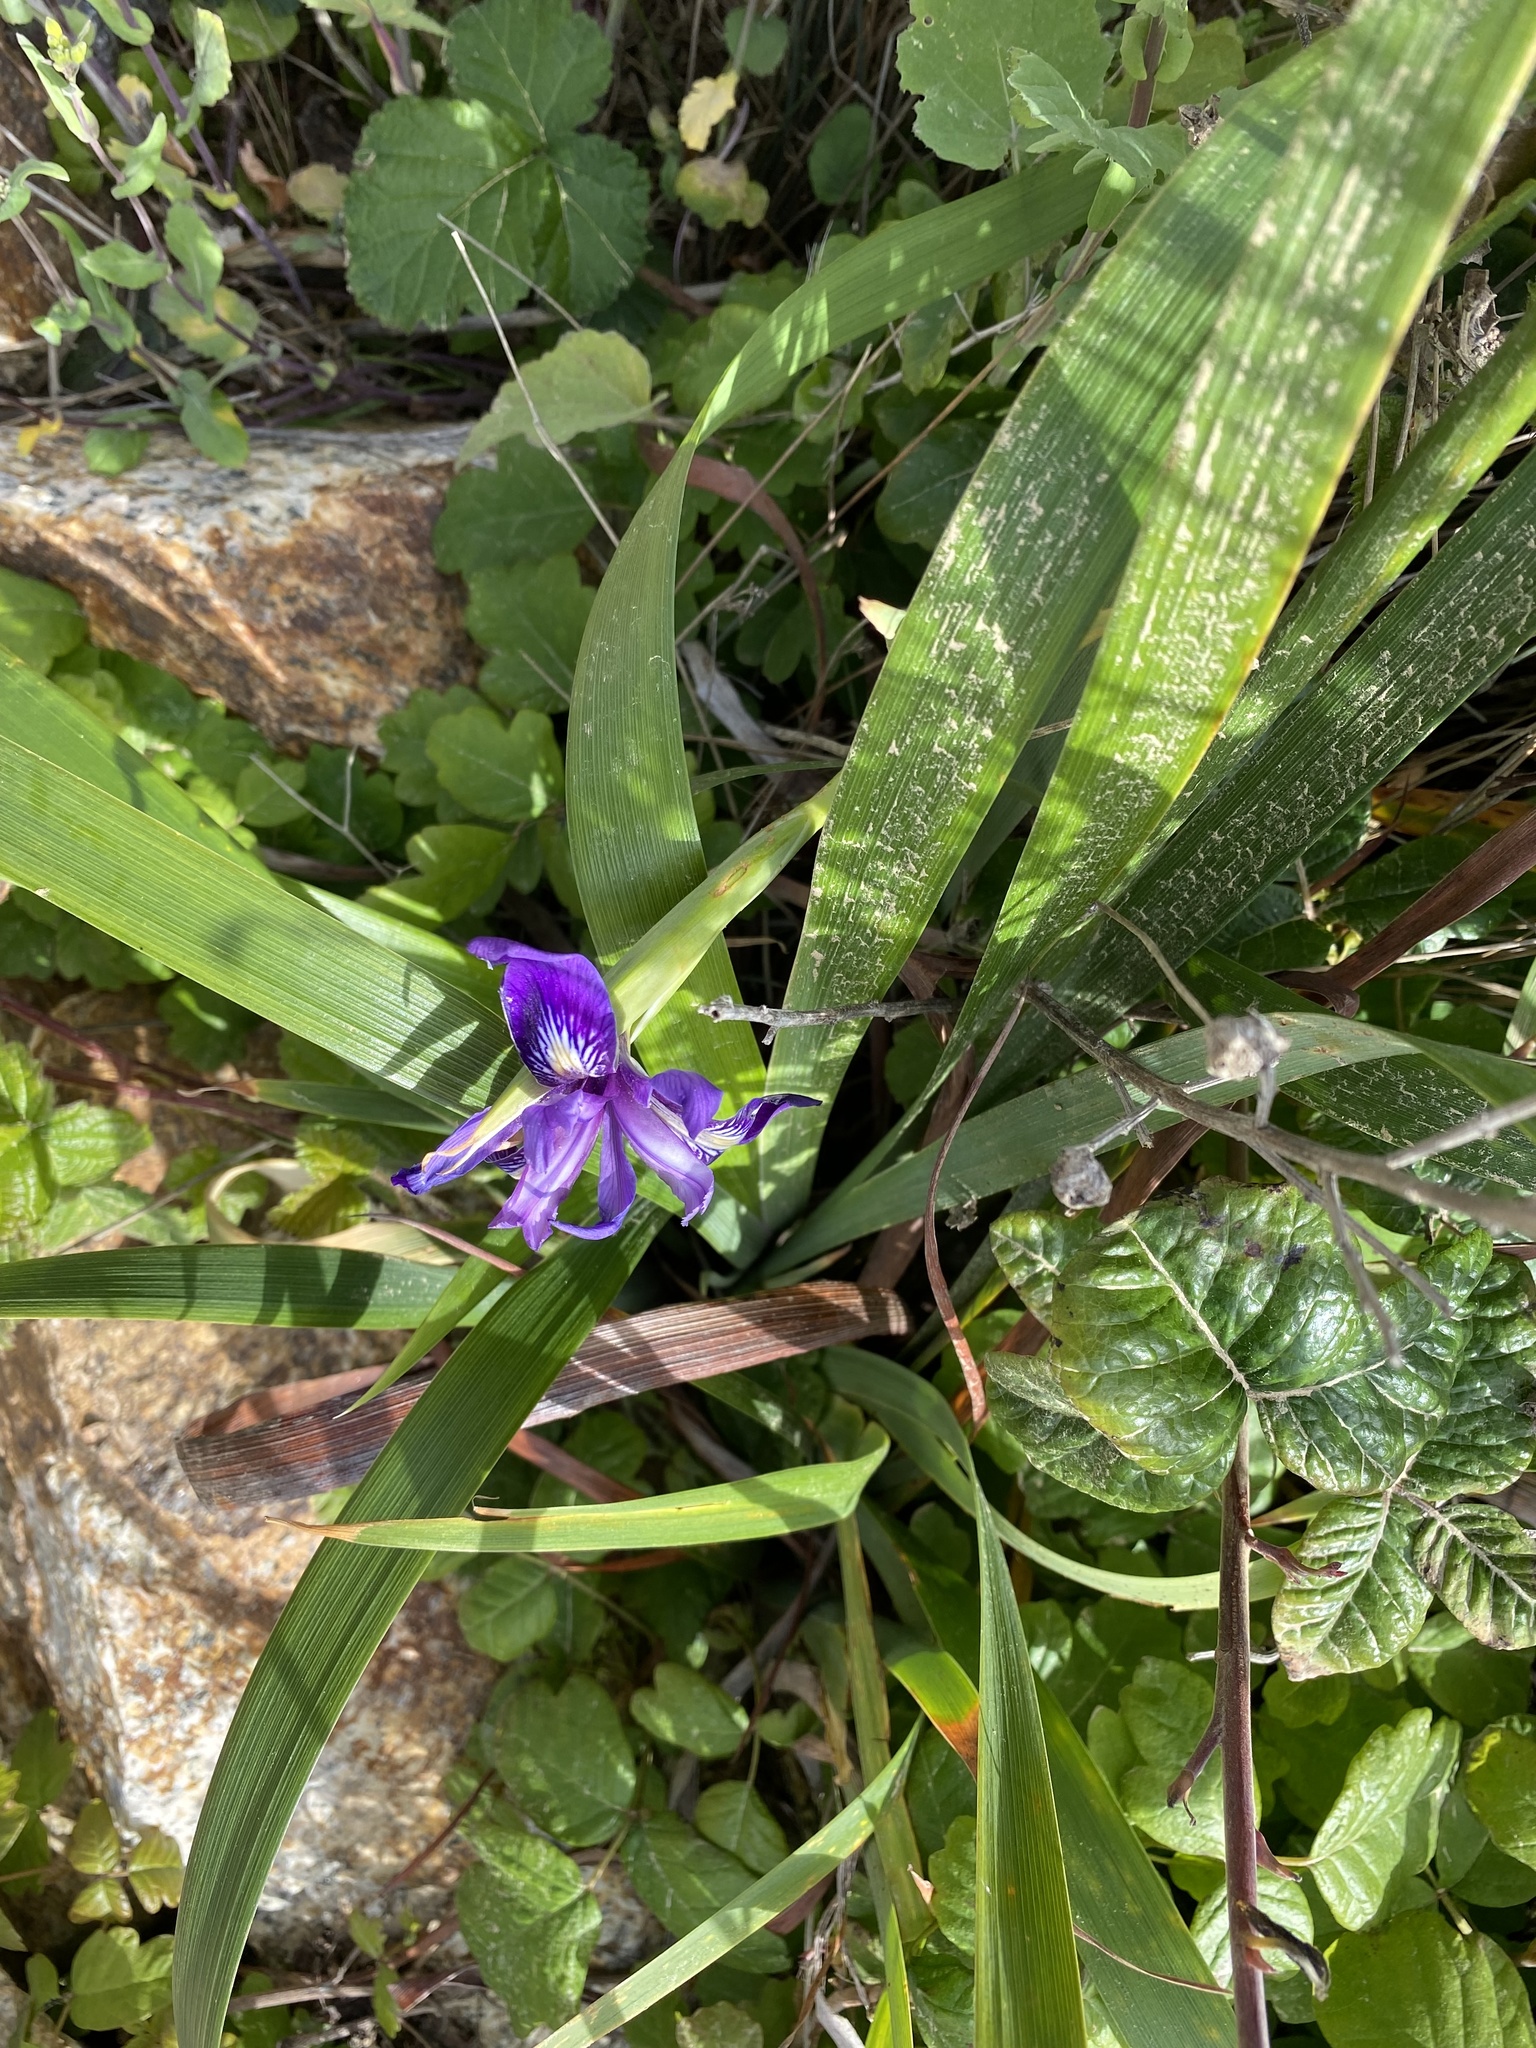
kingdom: Plantae
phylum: Tracheophyta
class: Liliopsida
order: Asparagales
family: Iridaceae
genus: Iris
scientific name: Iris douglasiana
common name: Marin iris
